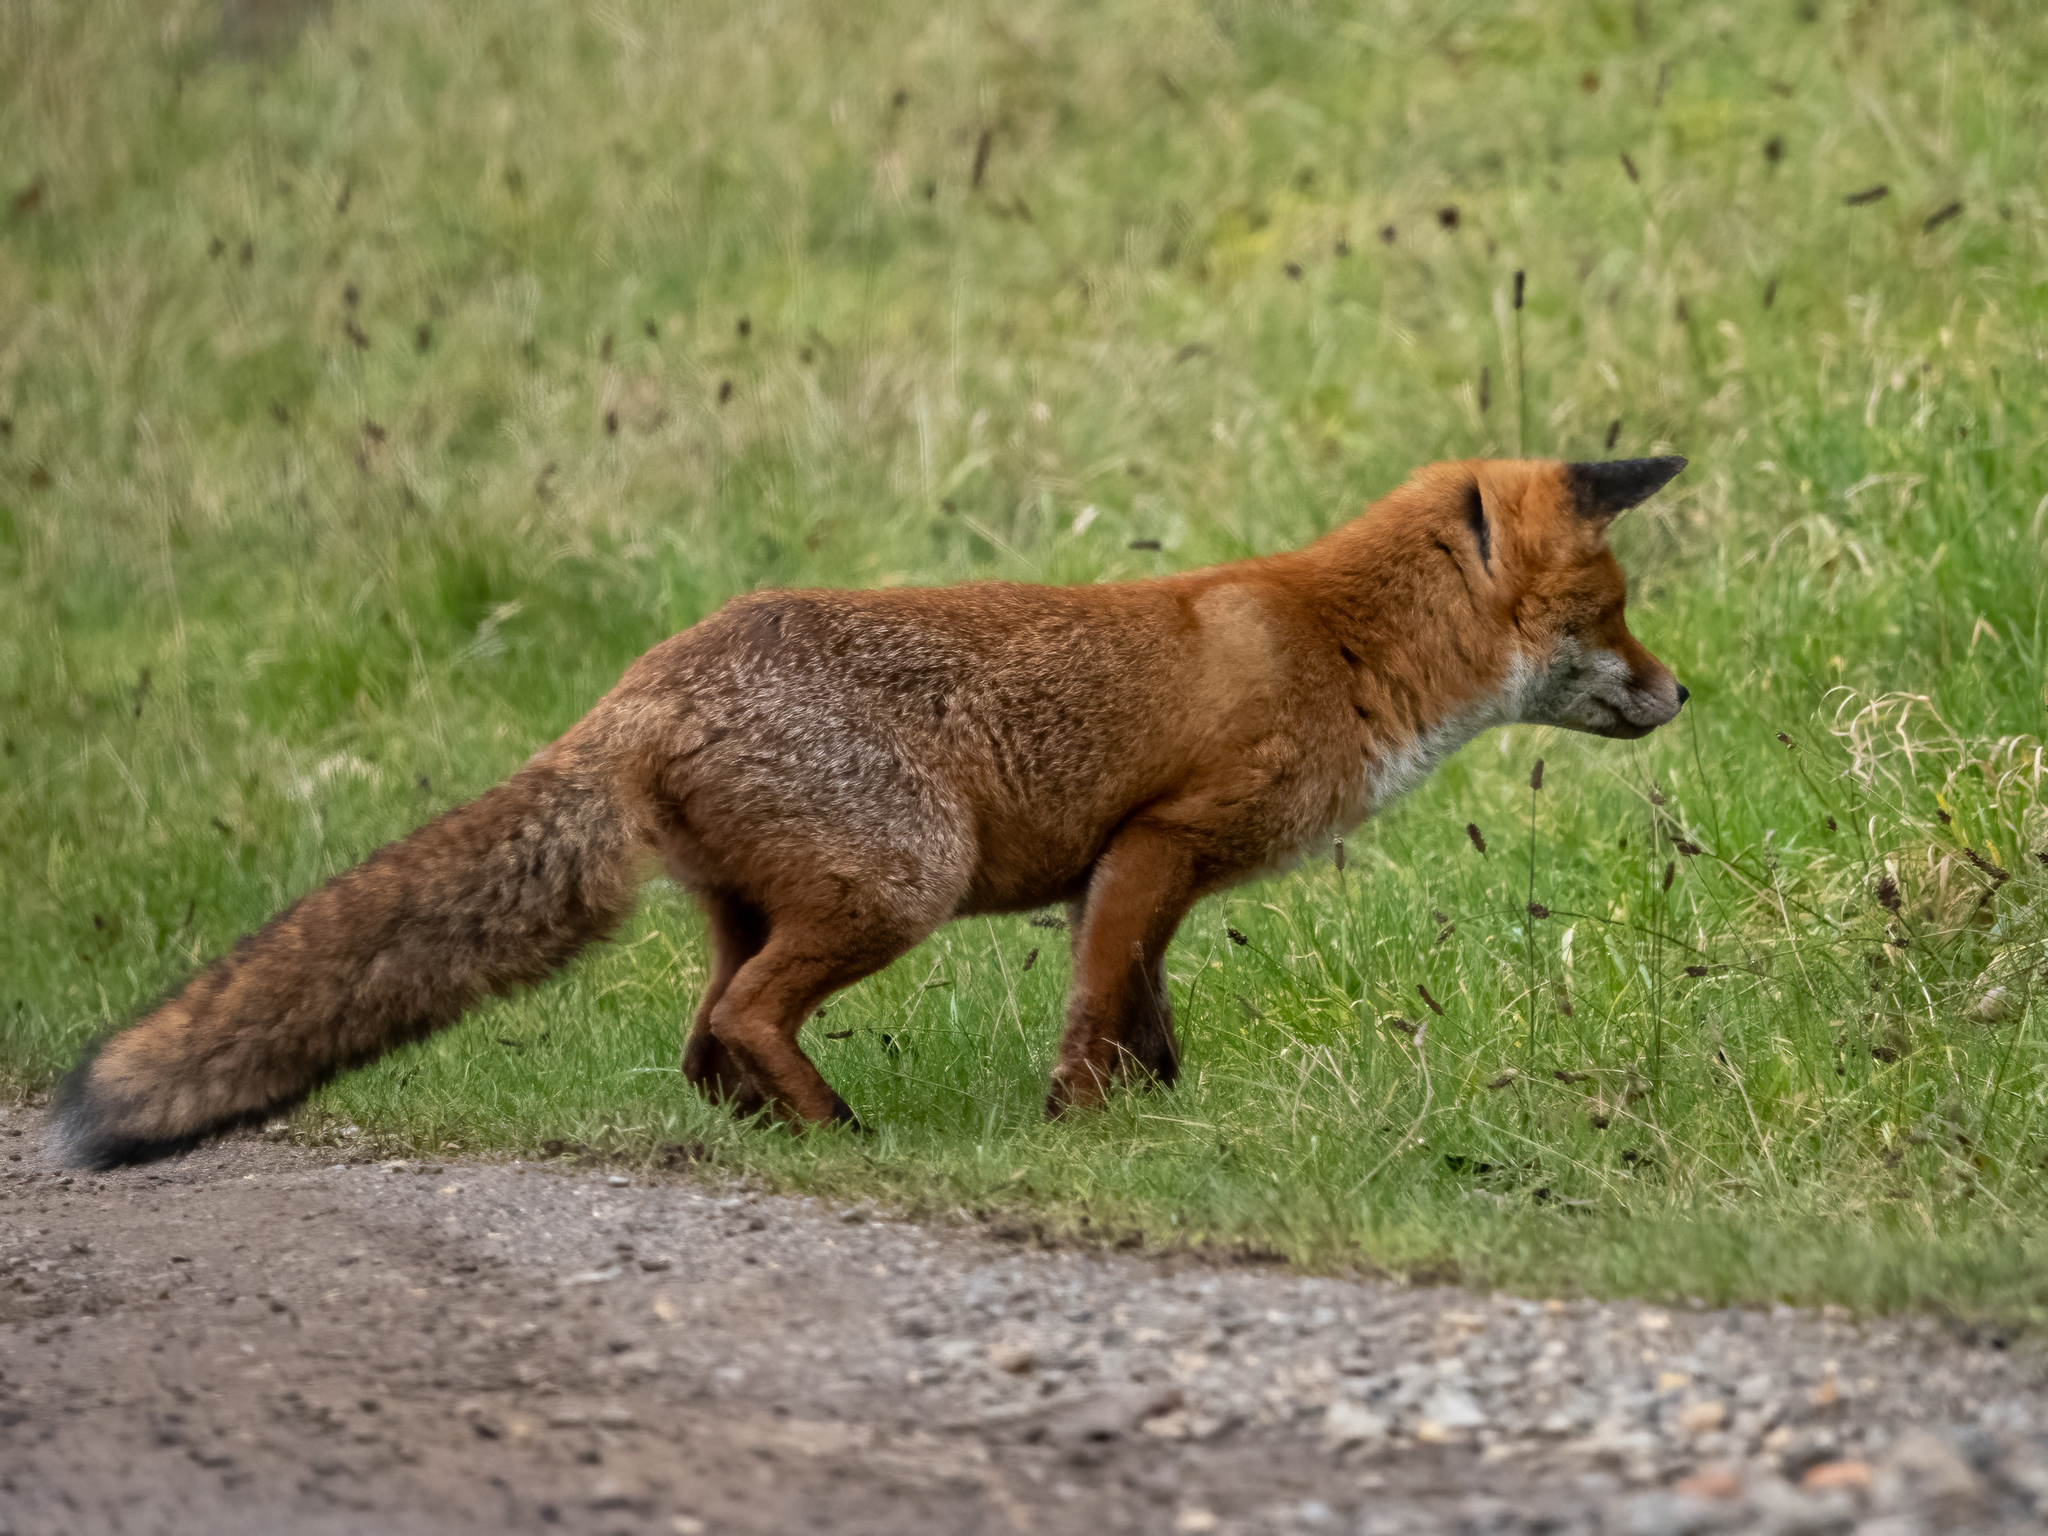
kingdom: Animalia
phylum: Chordata
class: Mammalia
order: Carnivora
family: Canidae
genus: Vulpes
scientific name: Vulpes vulpes
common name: Red fox
